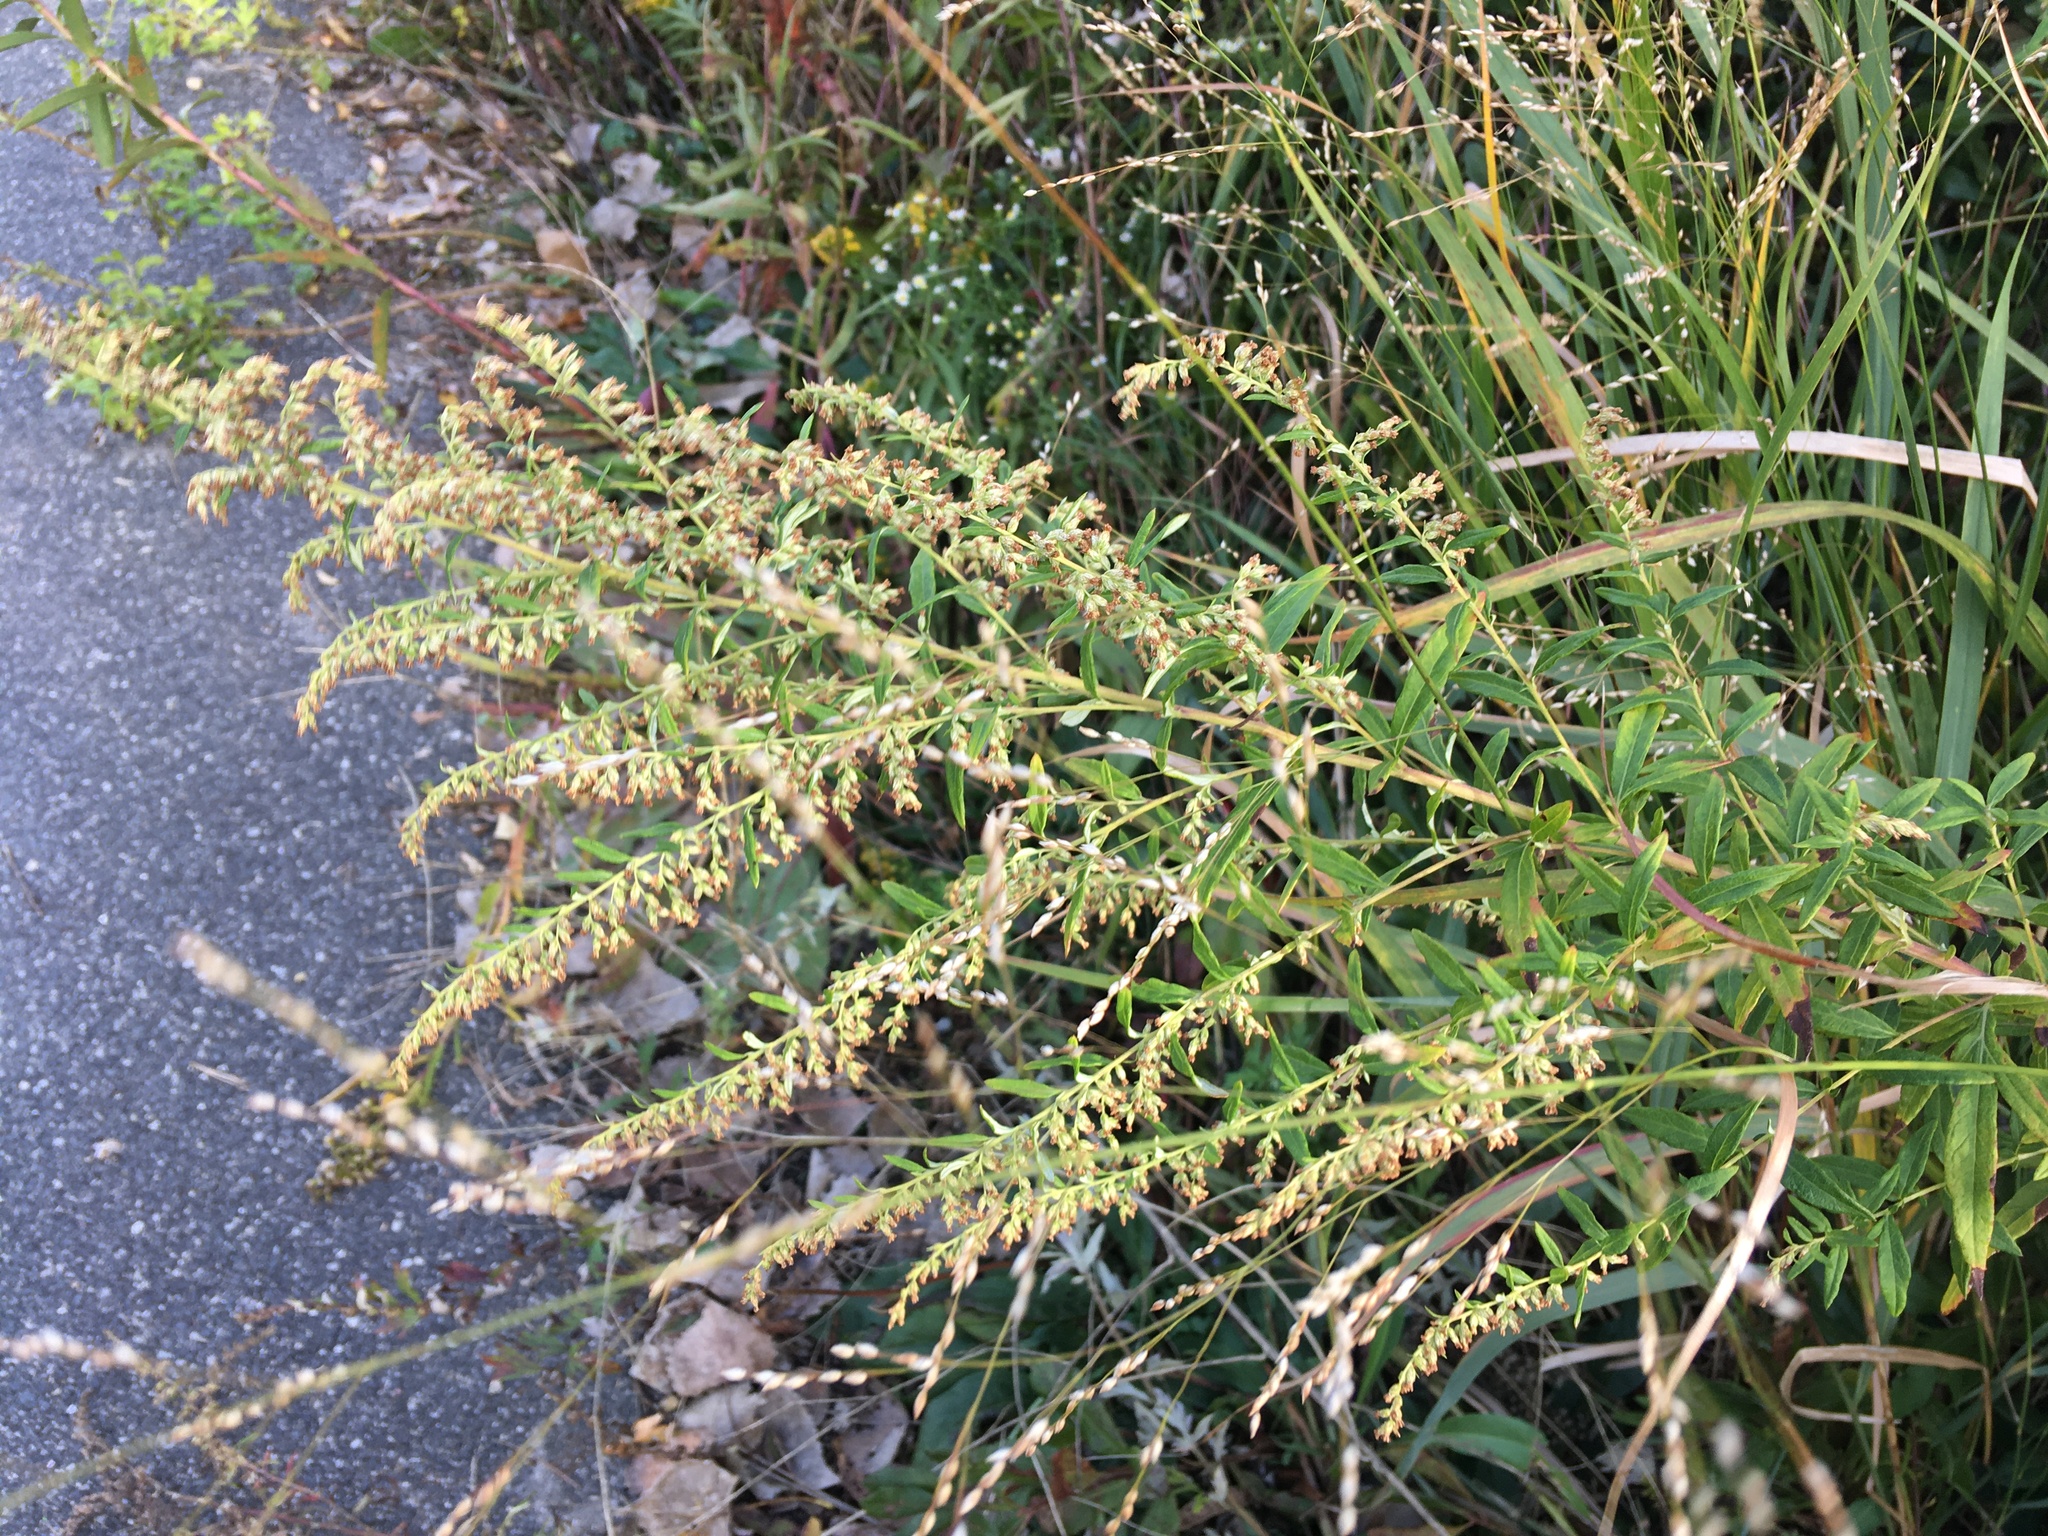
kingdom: Plantae
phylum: Tracheophyta
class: Magnoliopsida
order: Asterales
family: Asteraceae
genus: Artemisia
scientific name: Artemisia vulgaris
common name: Mugwort
